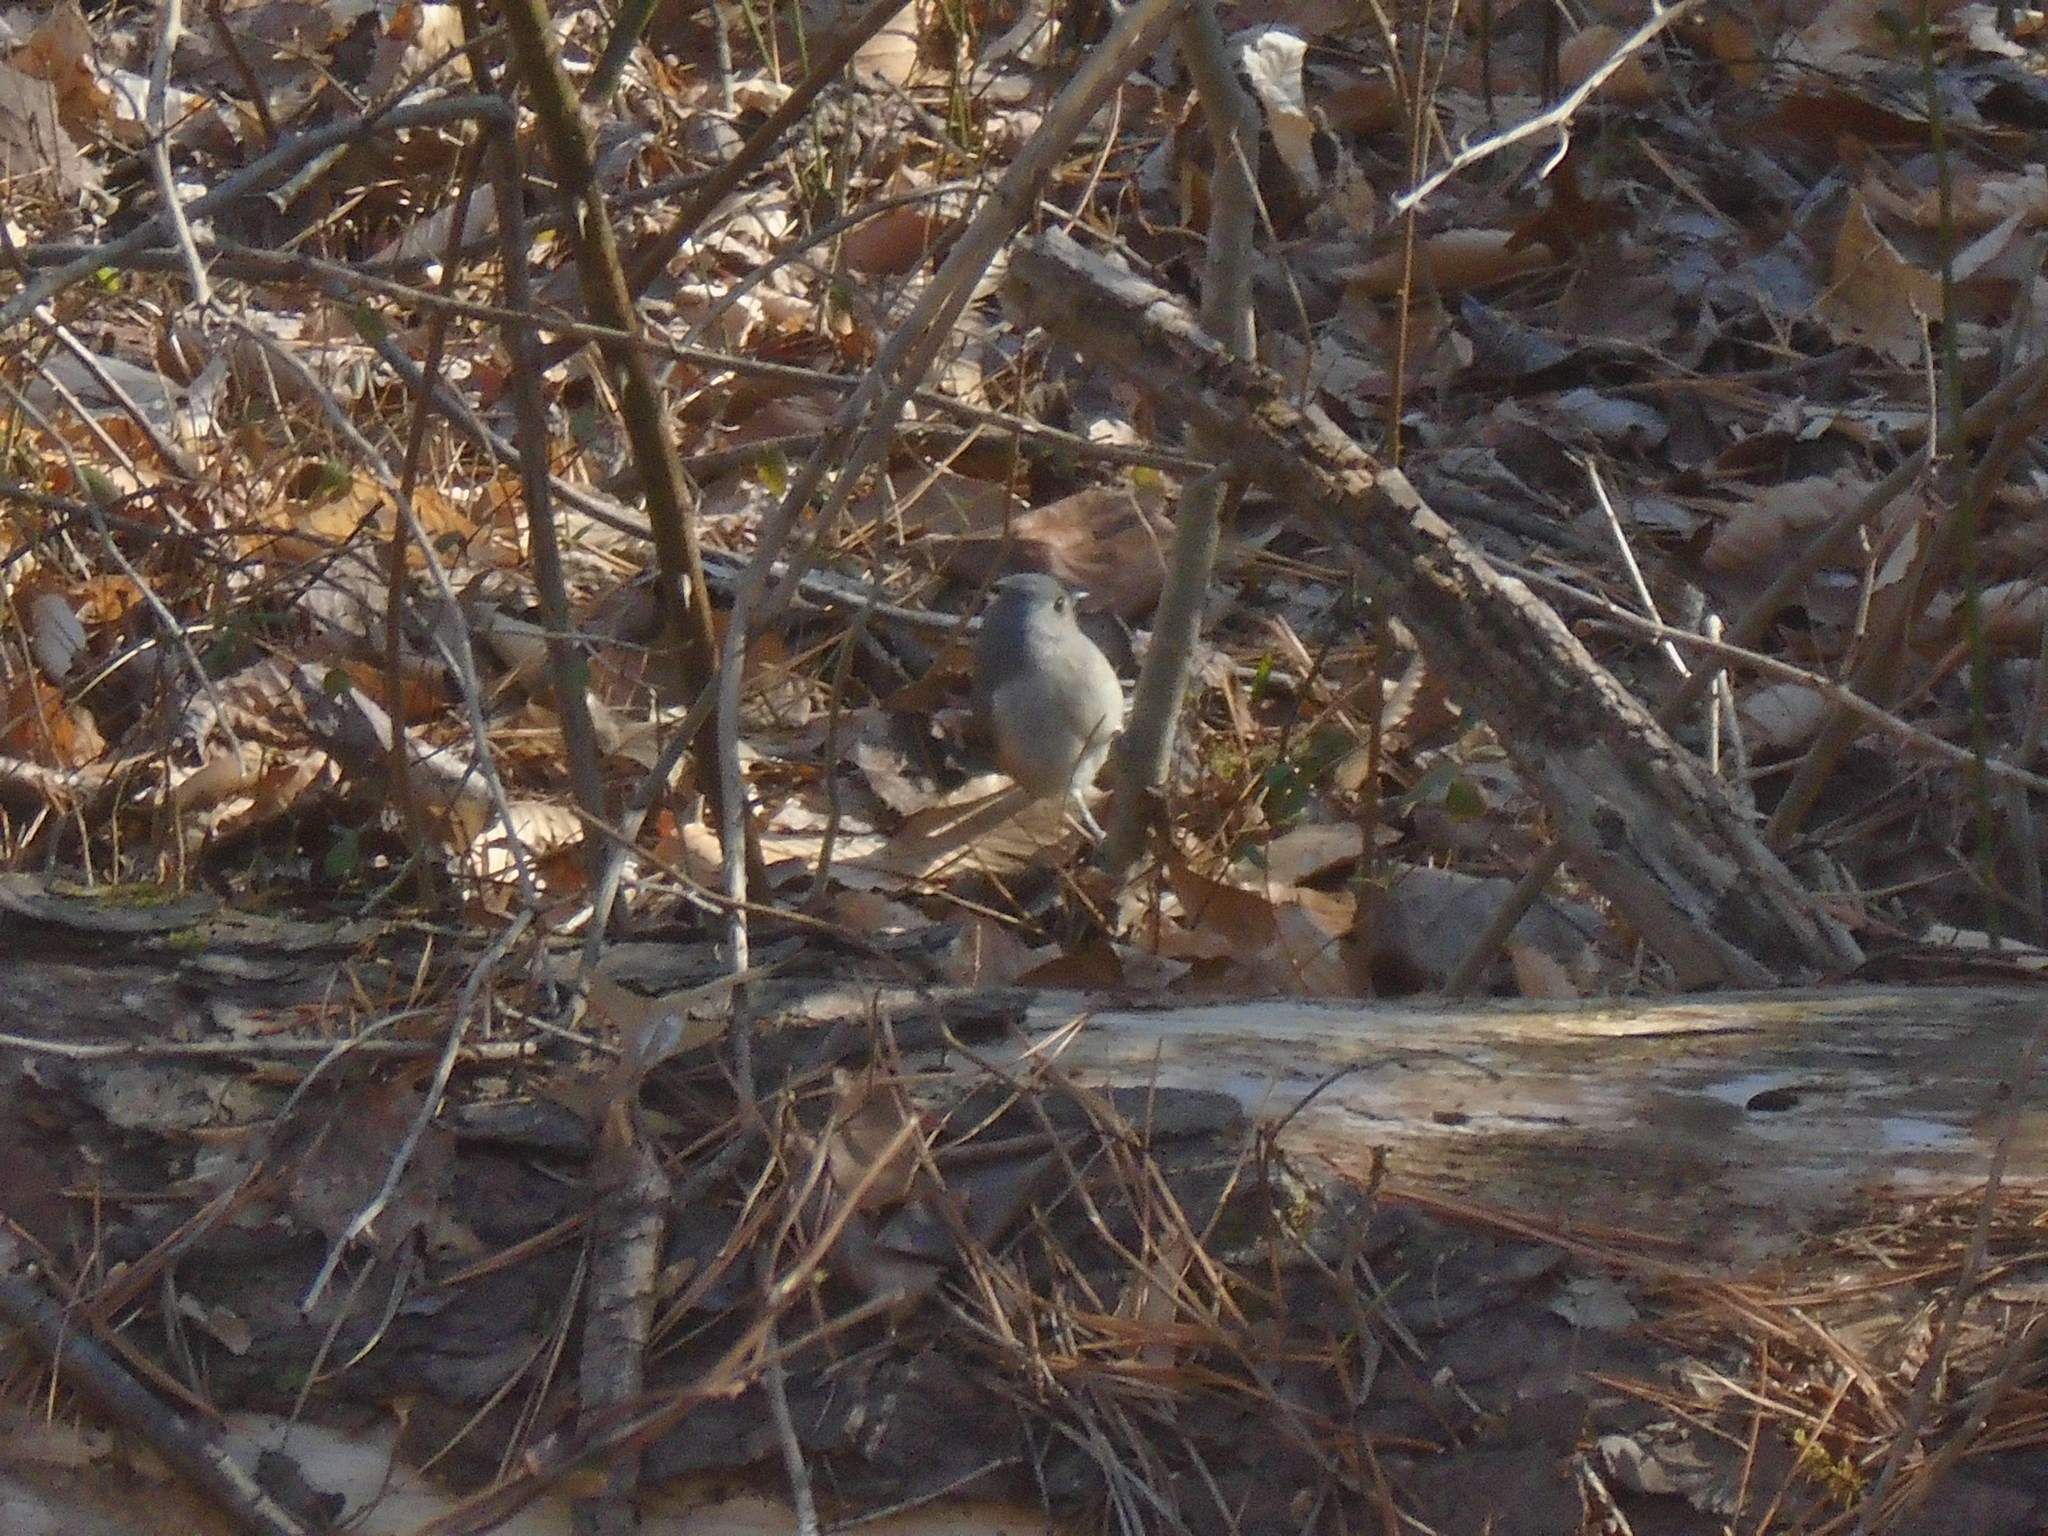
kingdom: Animalia
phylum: Chordata
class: Aves
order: Passeriformes
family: Paridae
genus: Baeolophus
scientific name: Baeolophus bicolor
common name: Tufted titmouse
